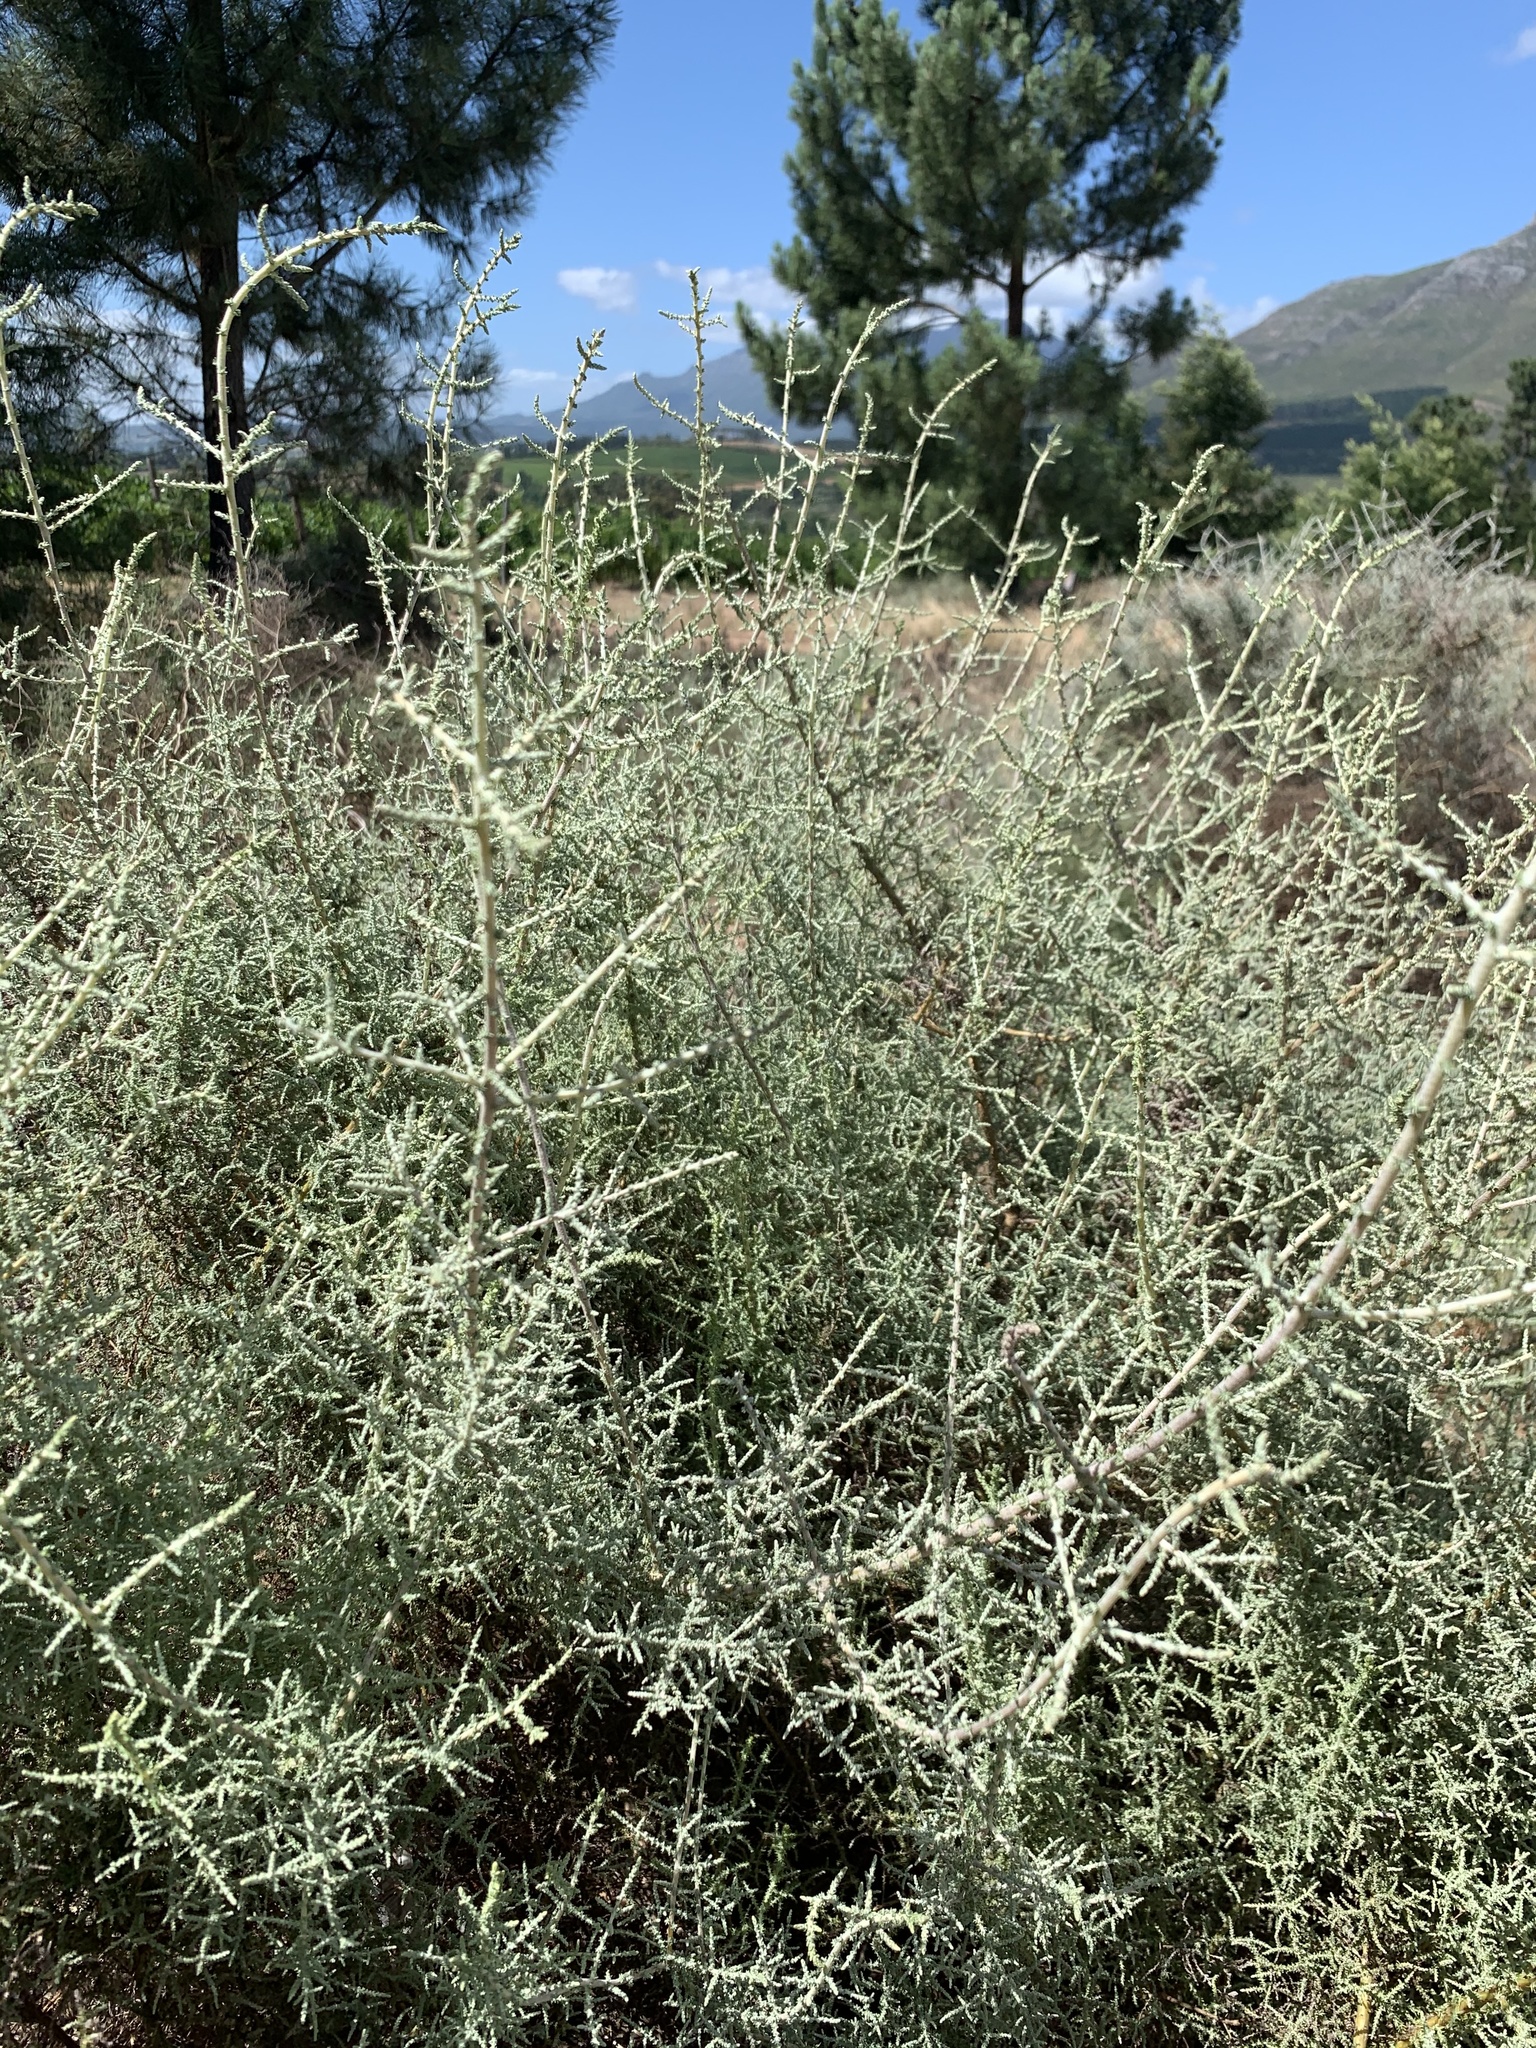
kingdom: Plantae
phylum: Tracheophyta
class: Magnoliopsida
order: Asterales
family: Asteraceae
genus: Seriphium
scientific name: Seriphium plumosum
